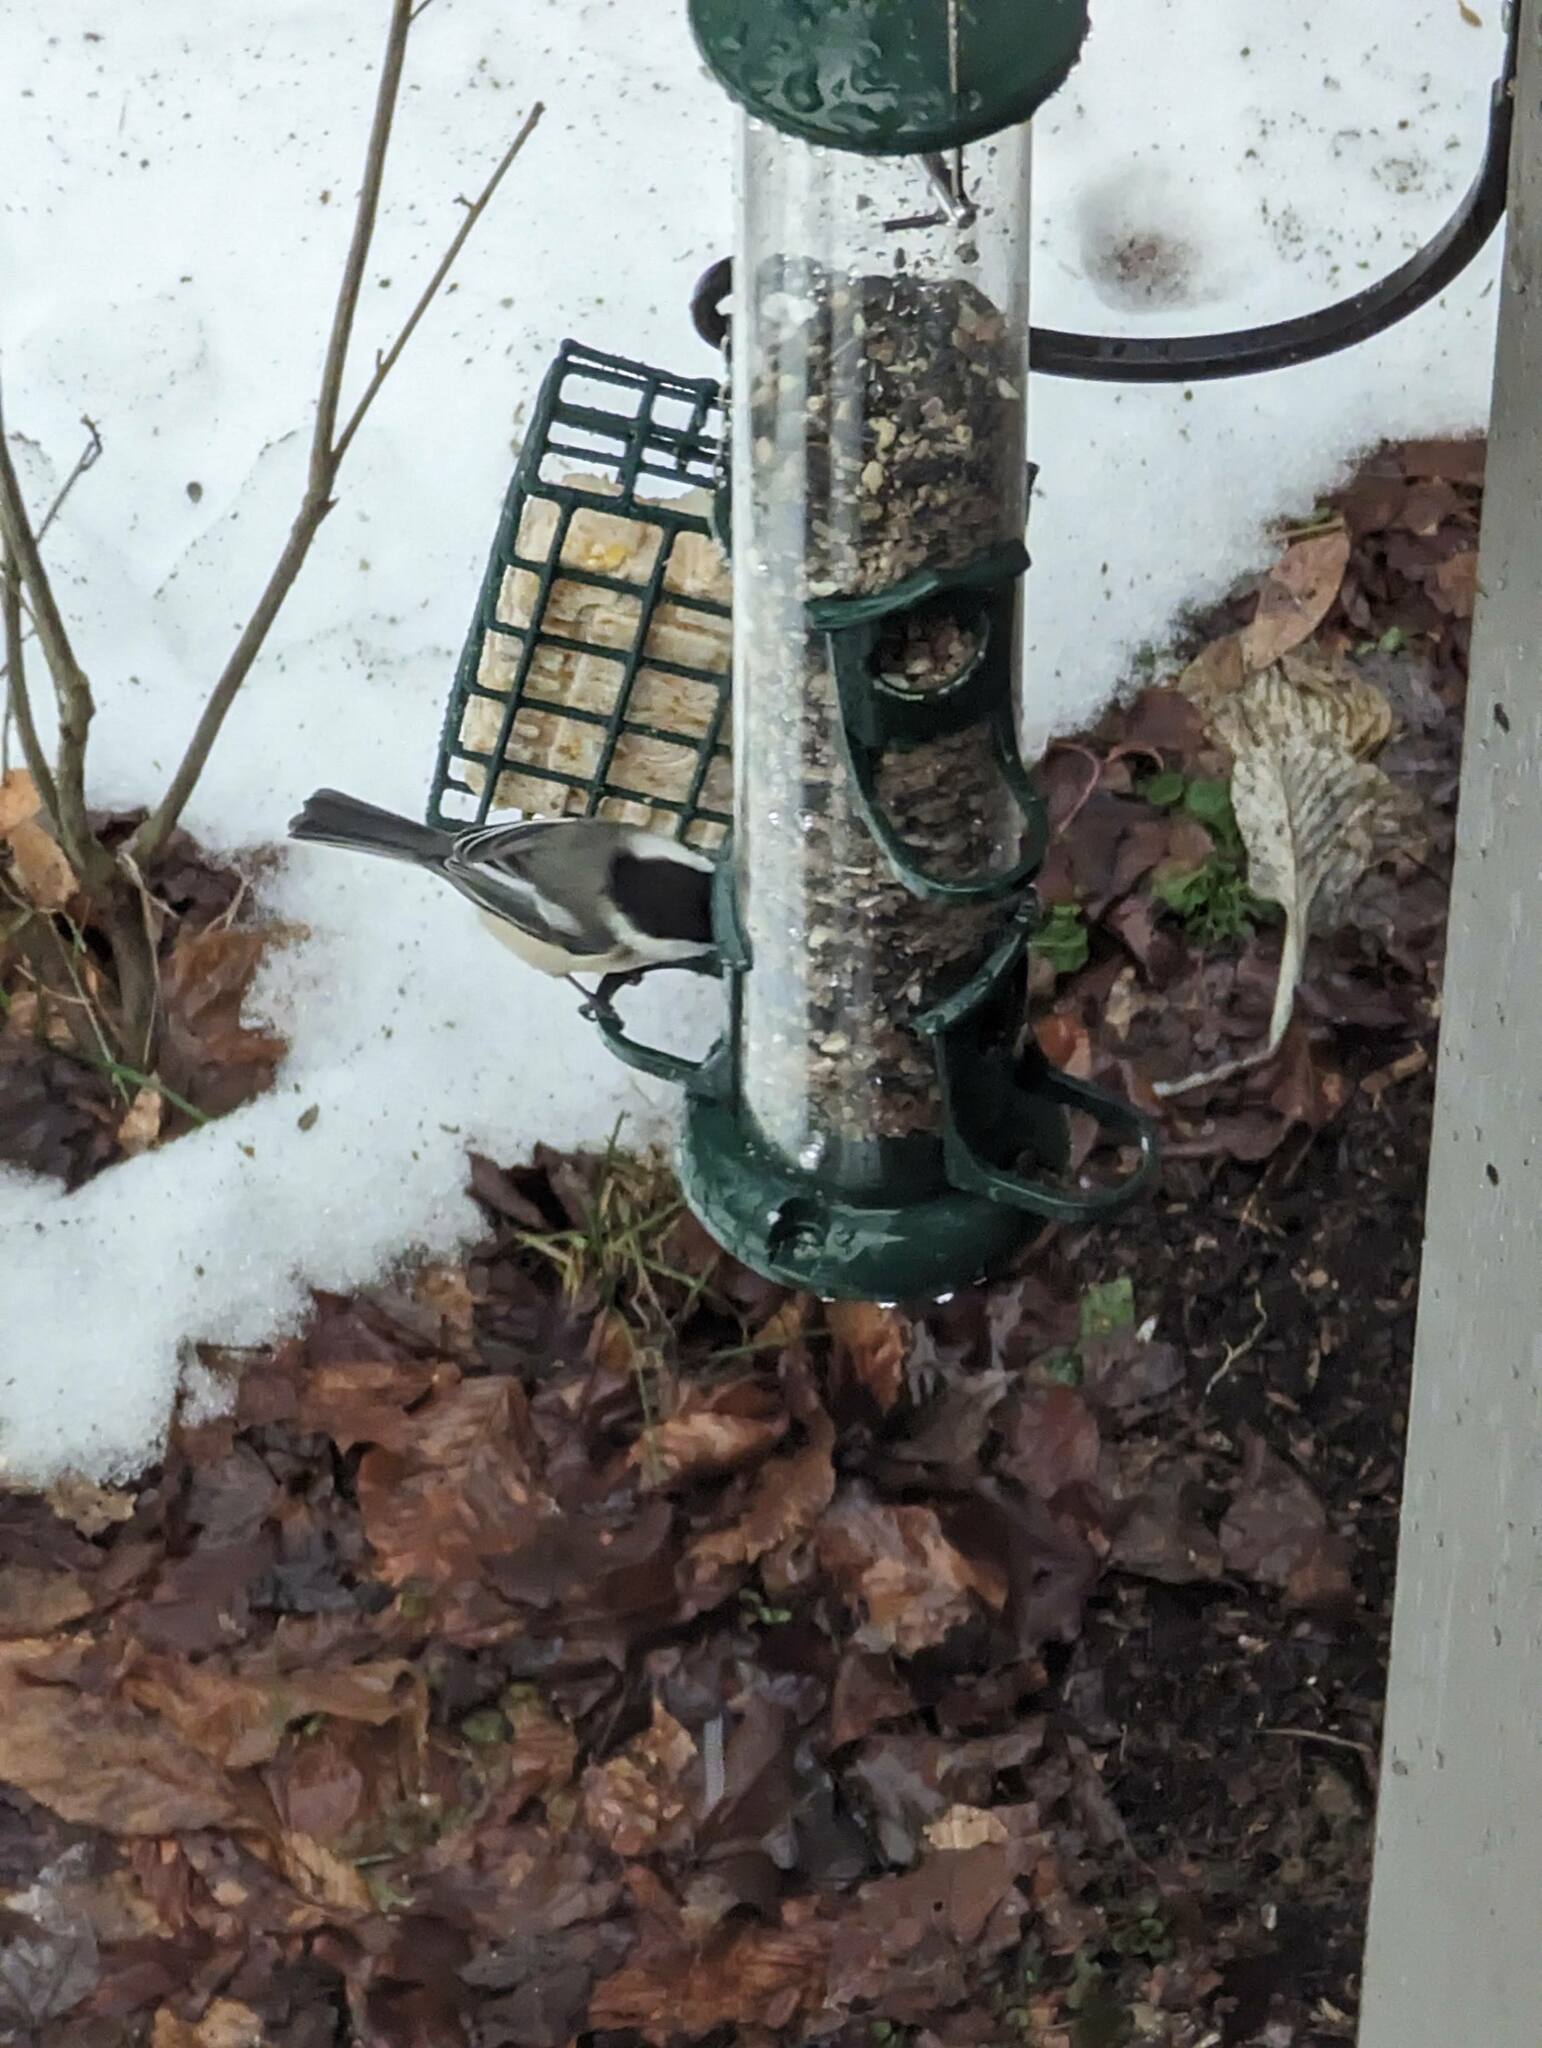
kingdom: Animalia
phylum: Chordata
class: Aves
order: Passeriformes
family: Paridae
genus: Poecile
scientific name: Poecile atricapillus
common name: Black-capped chickadee
